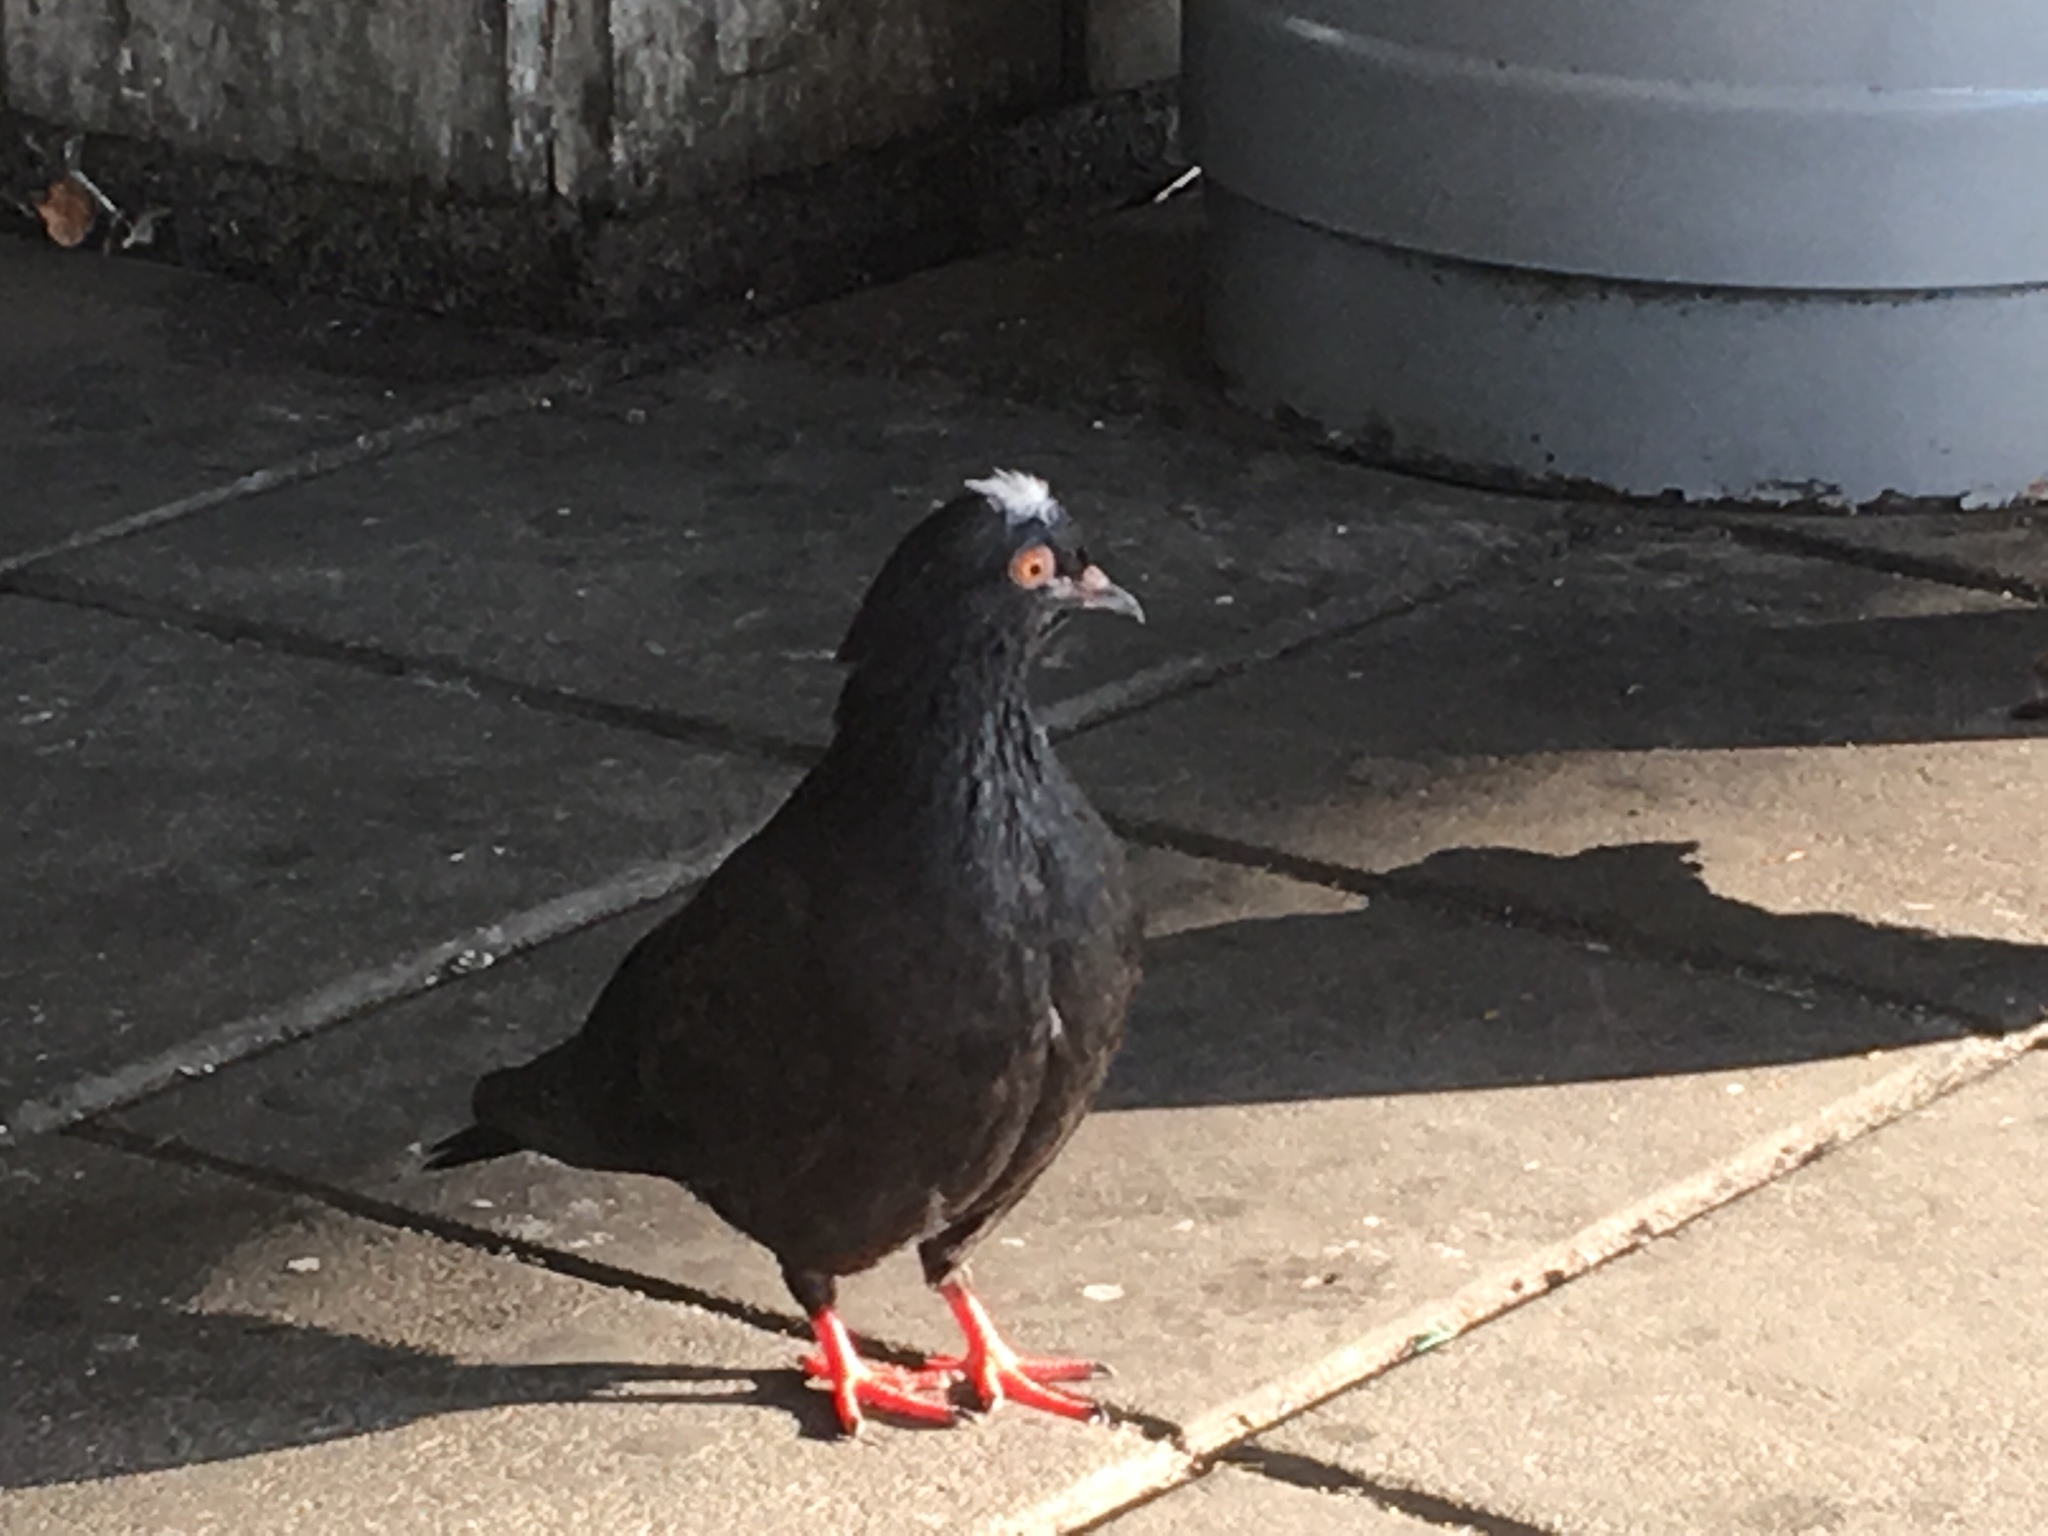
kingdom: Animalia
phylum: Chordata
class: Aves
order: Columbiformes
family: Columbidae
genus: Columba
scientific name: Columba livia
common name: Rock pigeon
